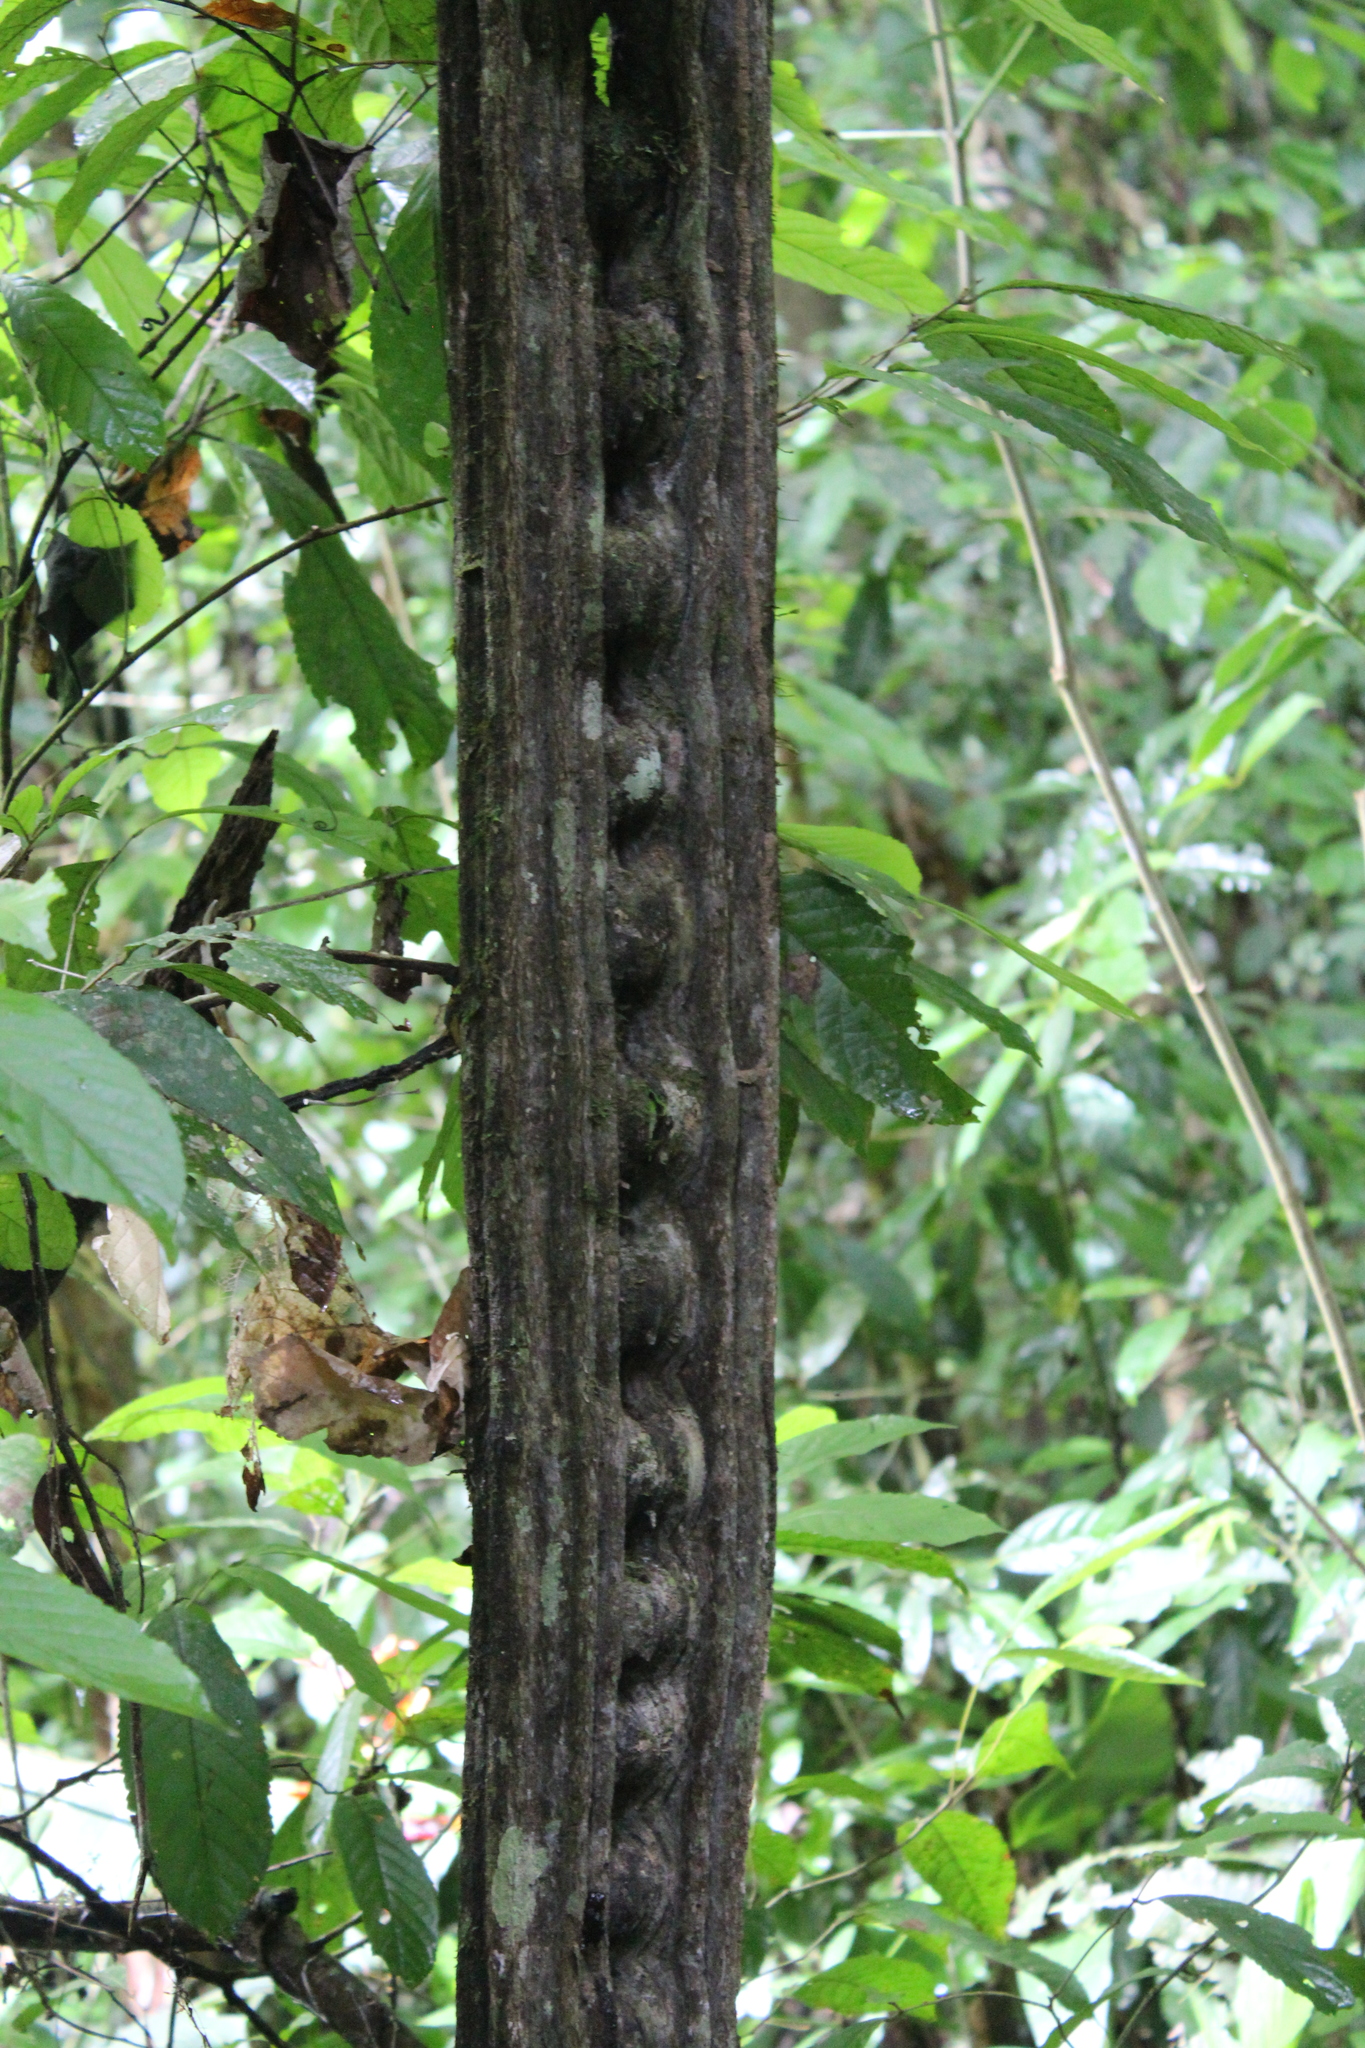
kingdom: Plantae
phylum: Tracheophyta
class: Magnoliopsida
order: Fabales
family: Fabaceae
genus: Entada
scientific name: Entada gigas
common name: Nicker-bean
